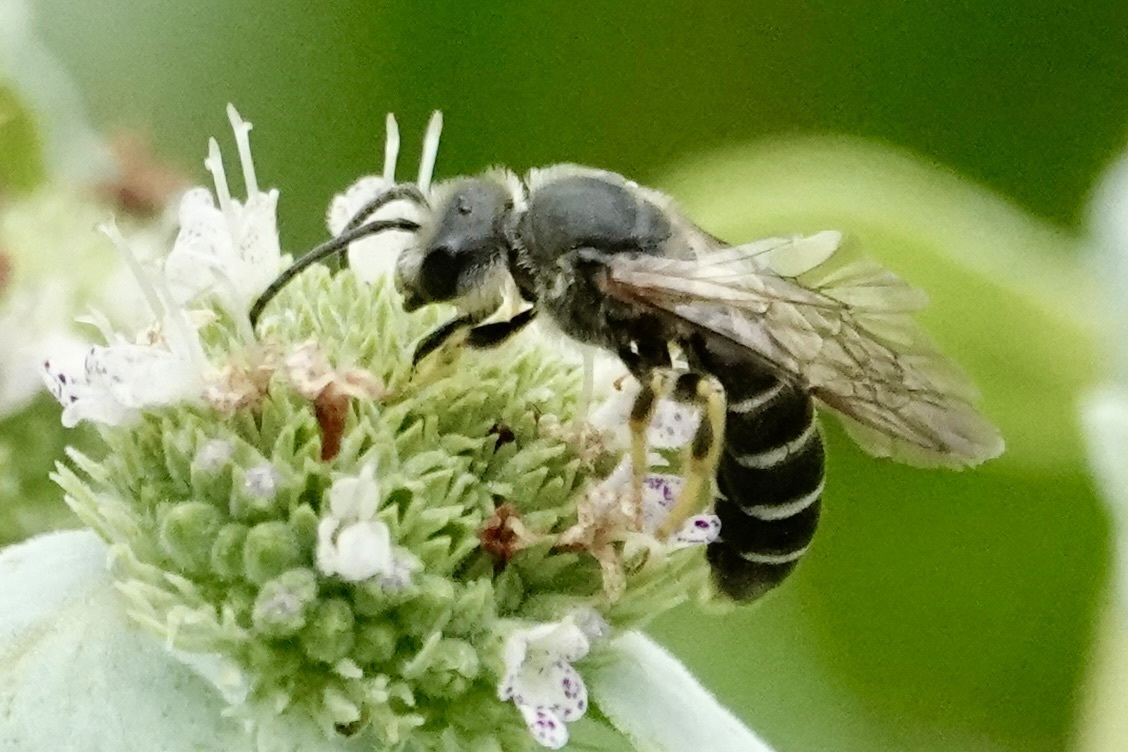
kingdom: Animalia
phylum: Arthropoda
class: Insecta
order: Hymenoptera
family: Halictidae
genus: Halictus
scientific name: Halictus rubicundus
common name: Orange-legged furrow bee
